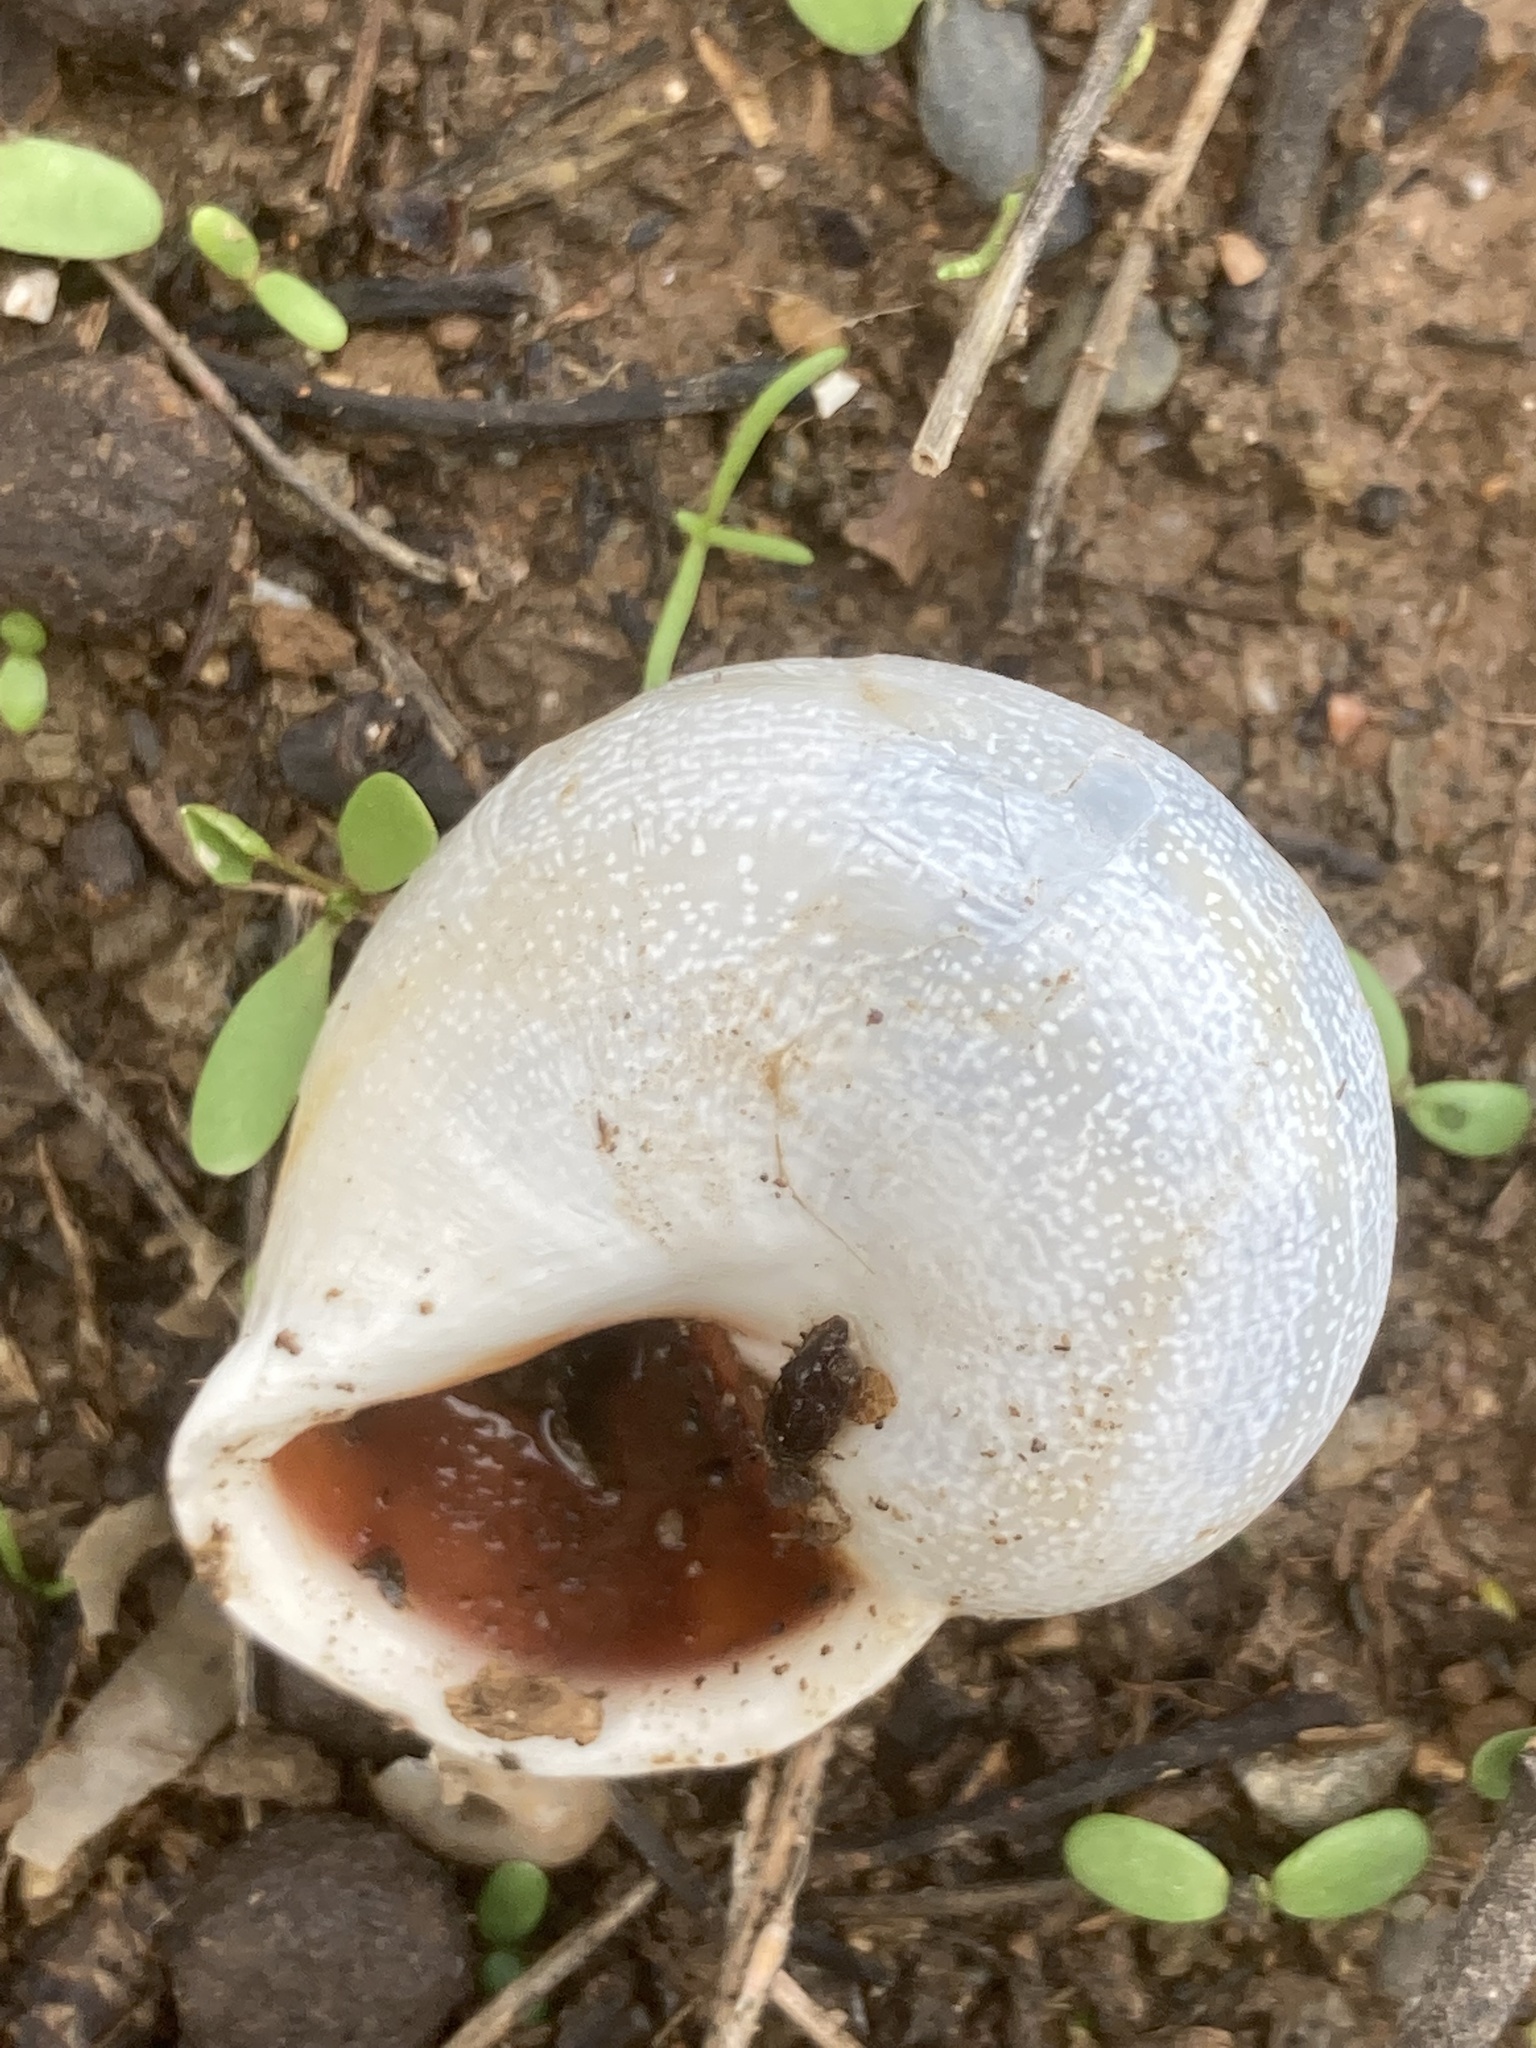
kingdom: Animalia
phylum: Mollusca
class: Gastropoda
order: Stylommatophora
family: Helicidae
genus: Otala
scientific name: Otala punctata
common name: Milk snail
